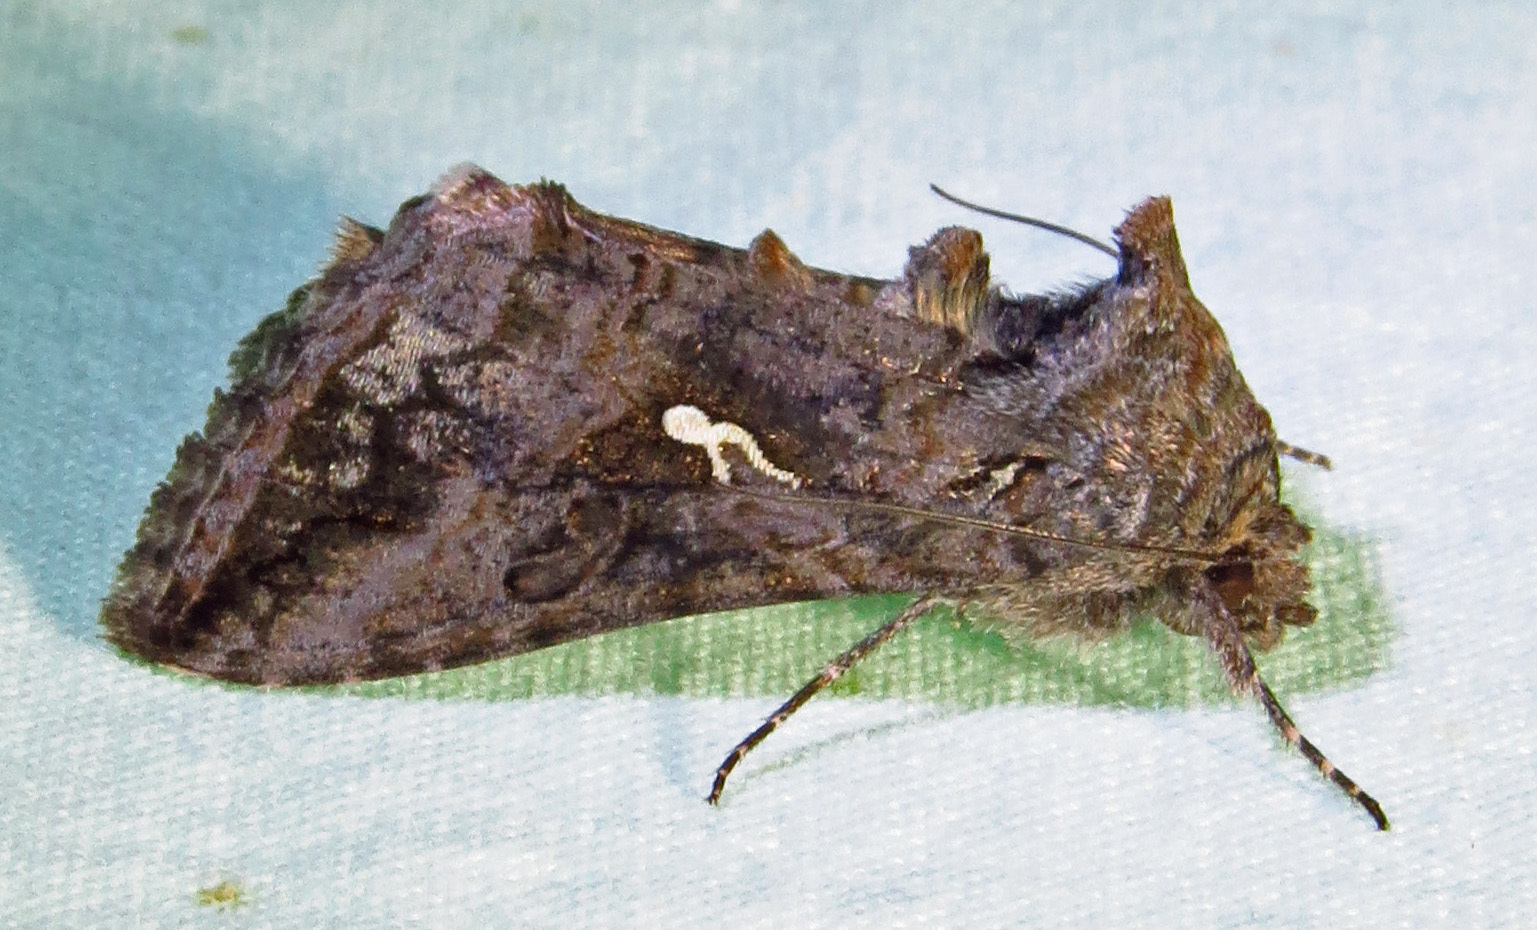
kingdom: Animalia
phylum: Arthropoda
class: Insecta
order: Lepidoptera
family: Noctuidae
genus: Rachiplusia
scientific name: Rachiplusia ou
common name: Gray looper moth
